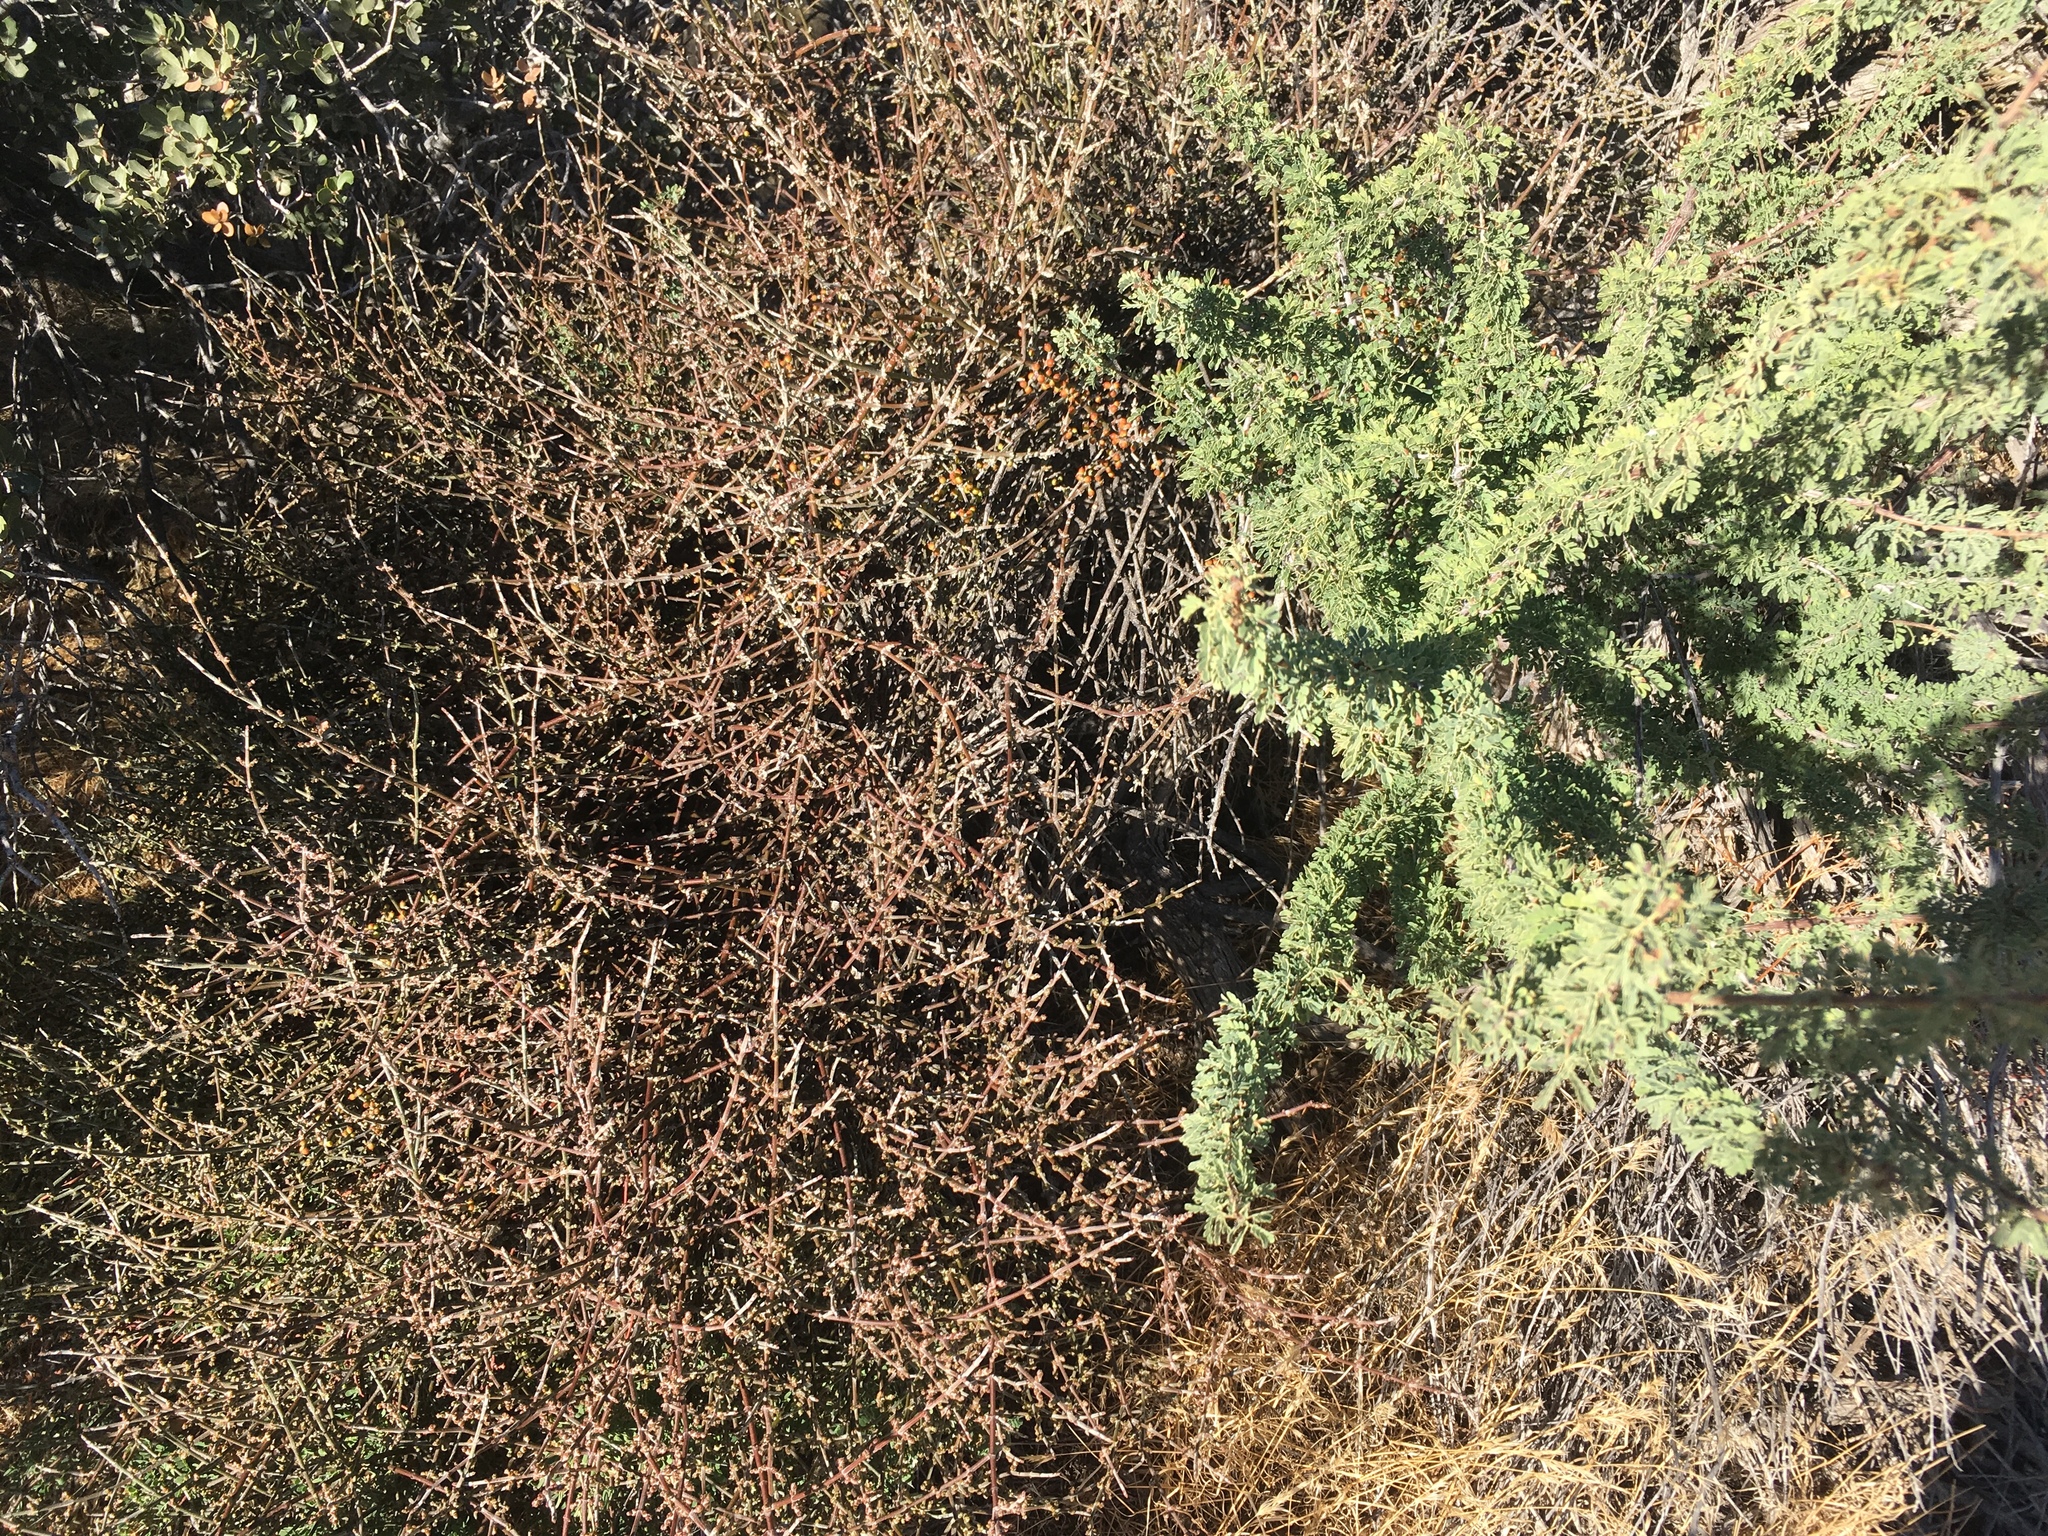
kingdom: Plantae
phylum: Tracheophyta
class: Magnoliopsida
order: Santalales
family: Viscaceae
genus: Phoradendron
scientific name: Phoradendron californicum
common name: Acacia mistletoe
